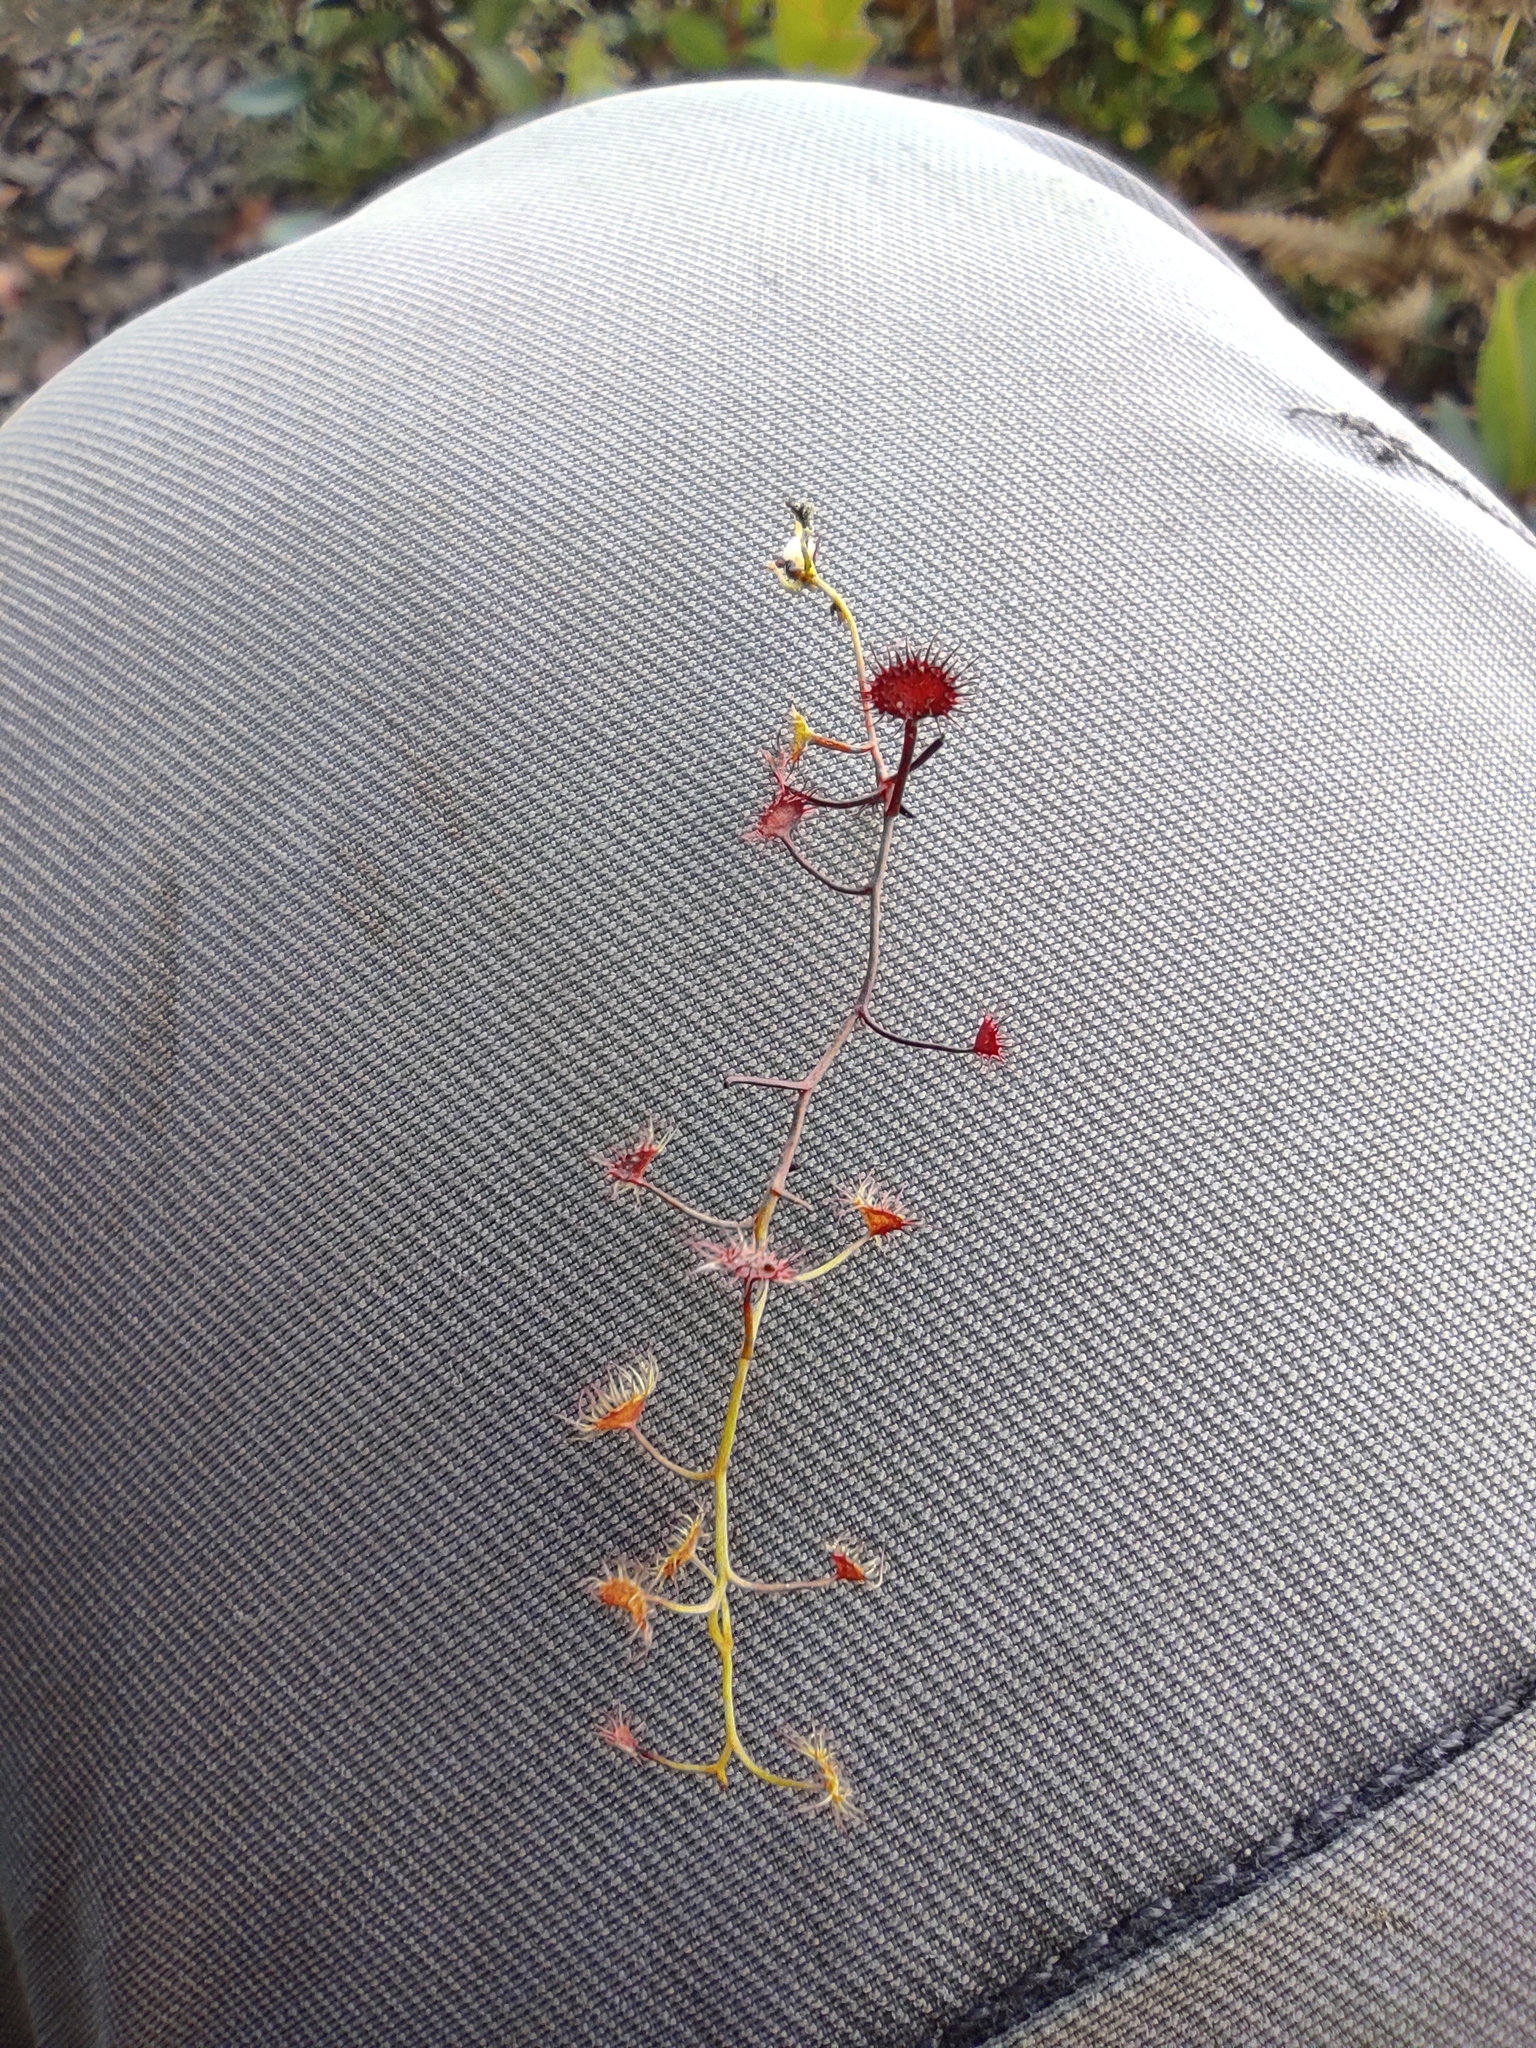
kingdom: Plantae
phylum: Tracheophyta
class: Magnoliopsida
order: Caryophyllales
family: Droseraceae
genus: Drosera
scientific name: Drosera peltata
